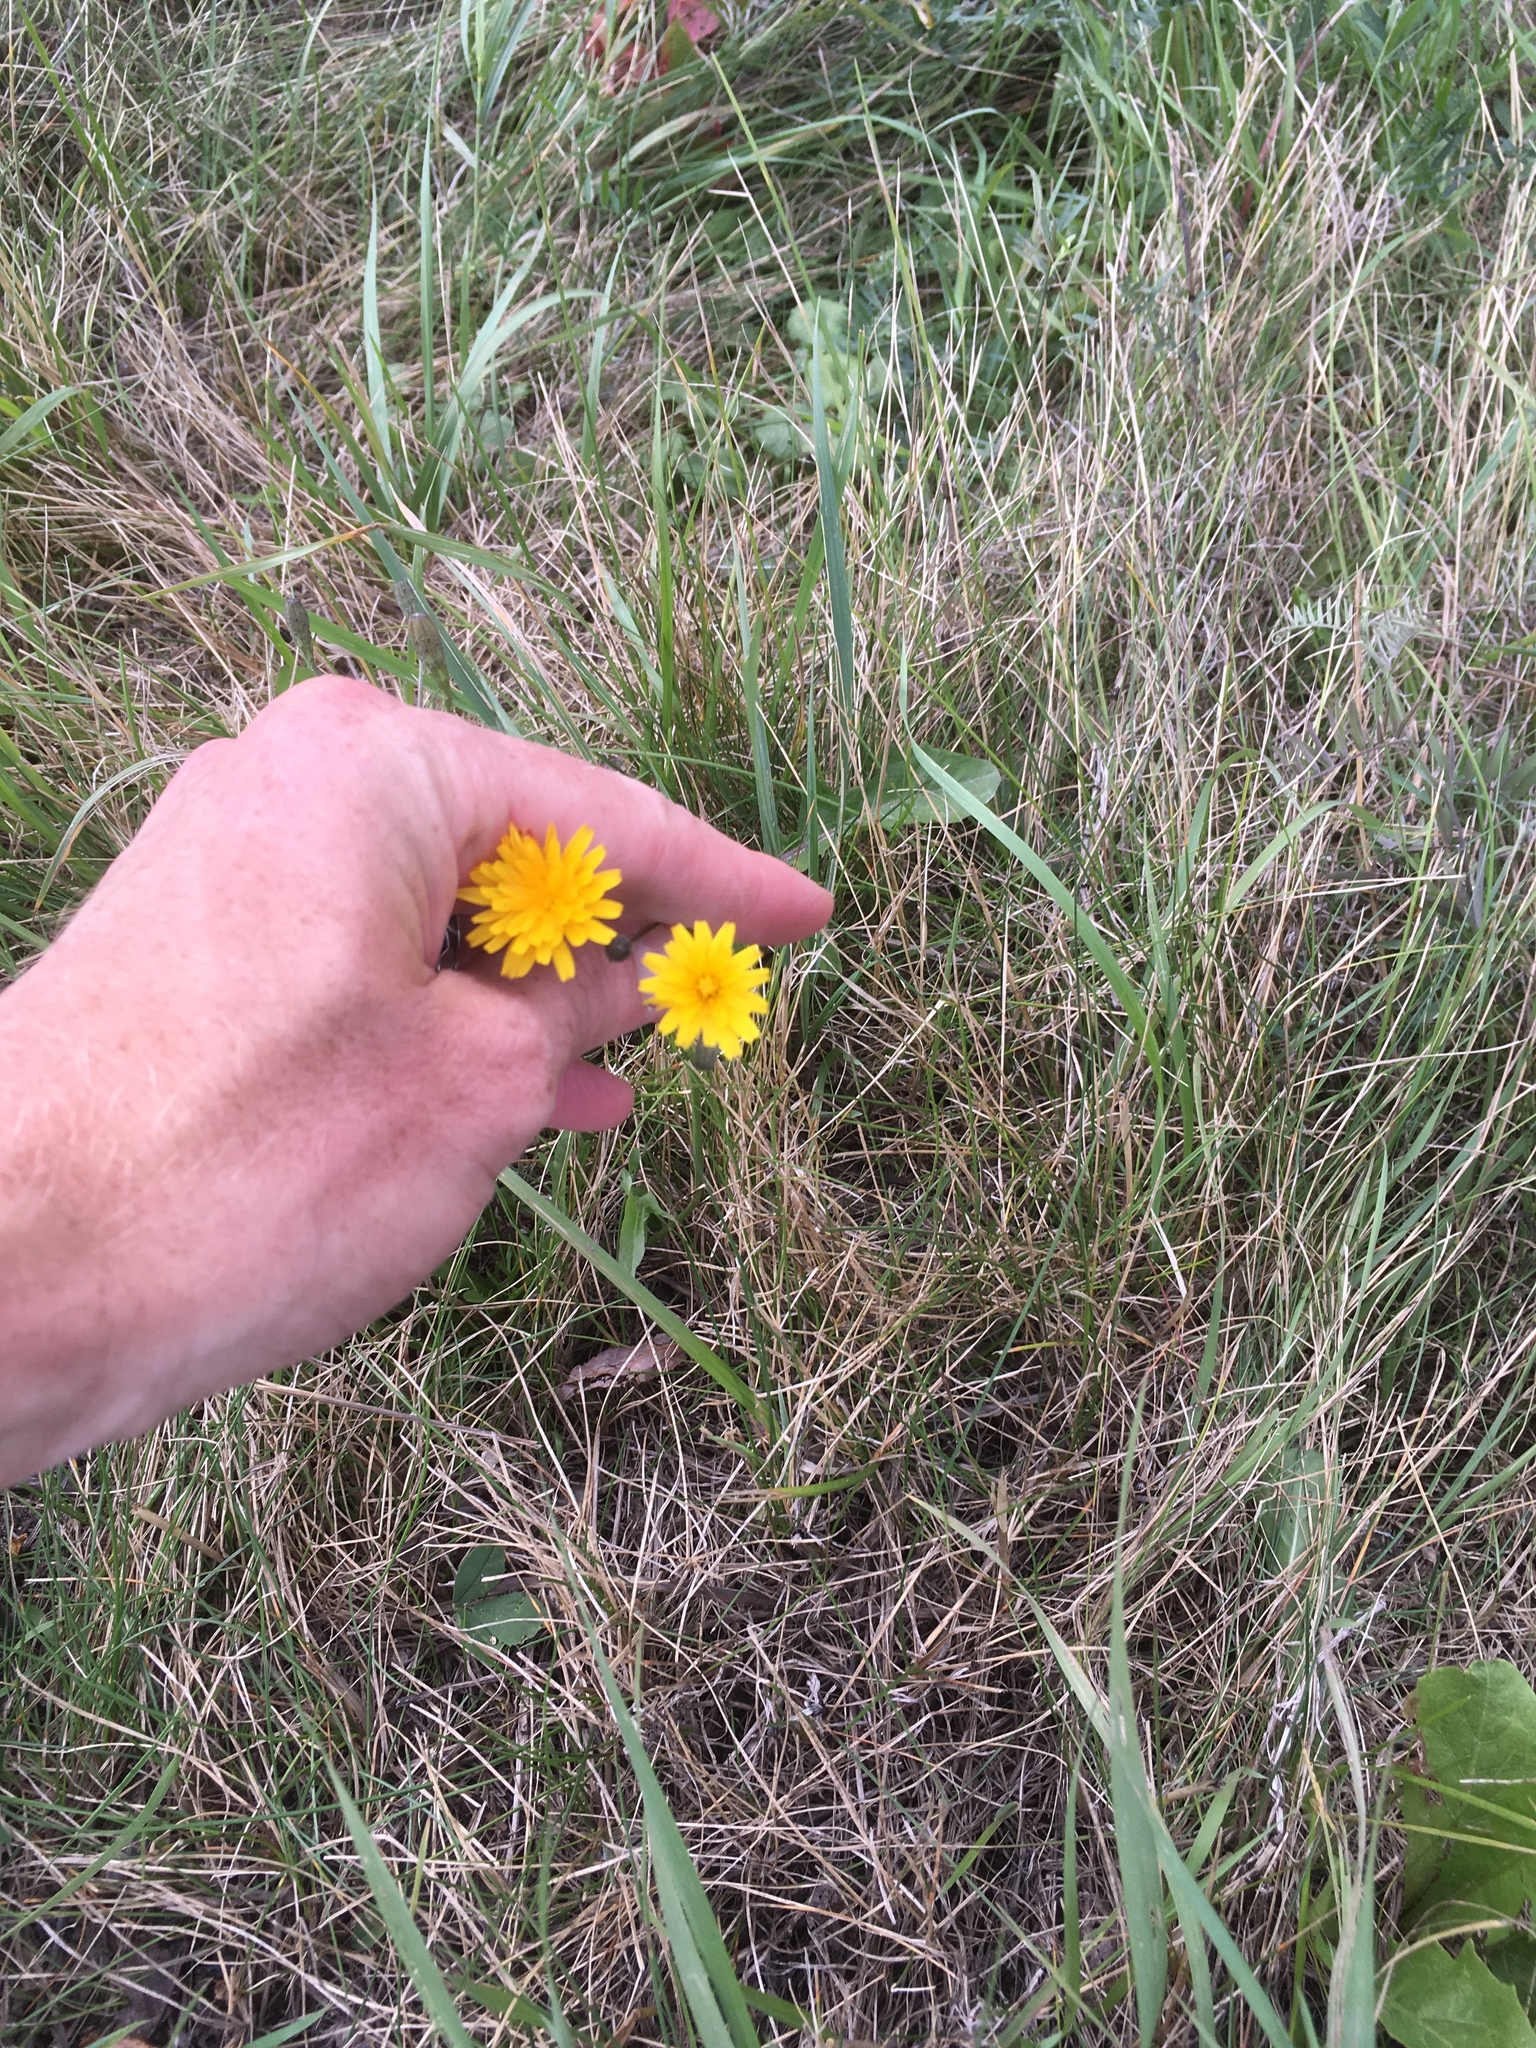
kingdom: Plantae
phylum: Tracheophyta
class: Magnoliopsida
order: Asterales
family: Asteraceae
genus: Scorzoneroides
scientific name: Scorzoneroides autumnalis
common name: Autumn hawkbit
